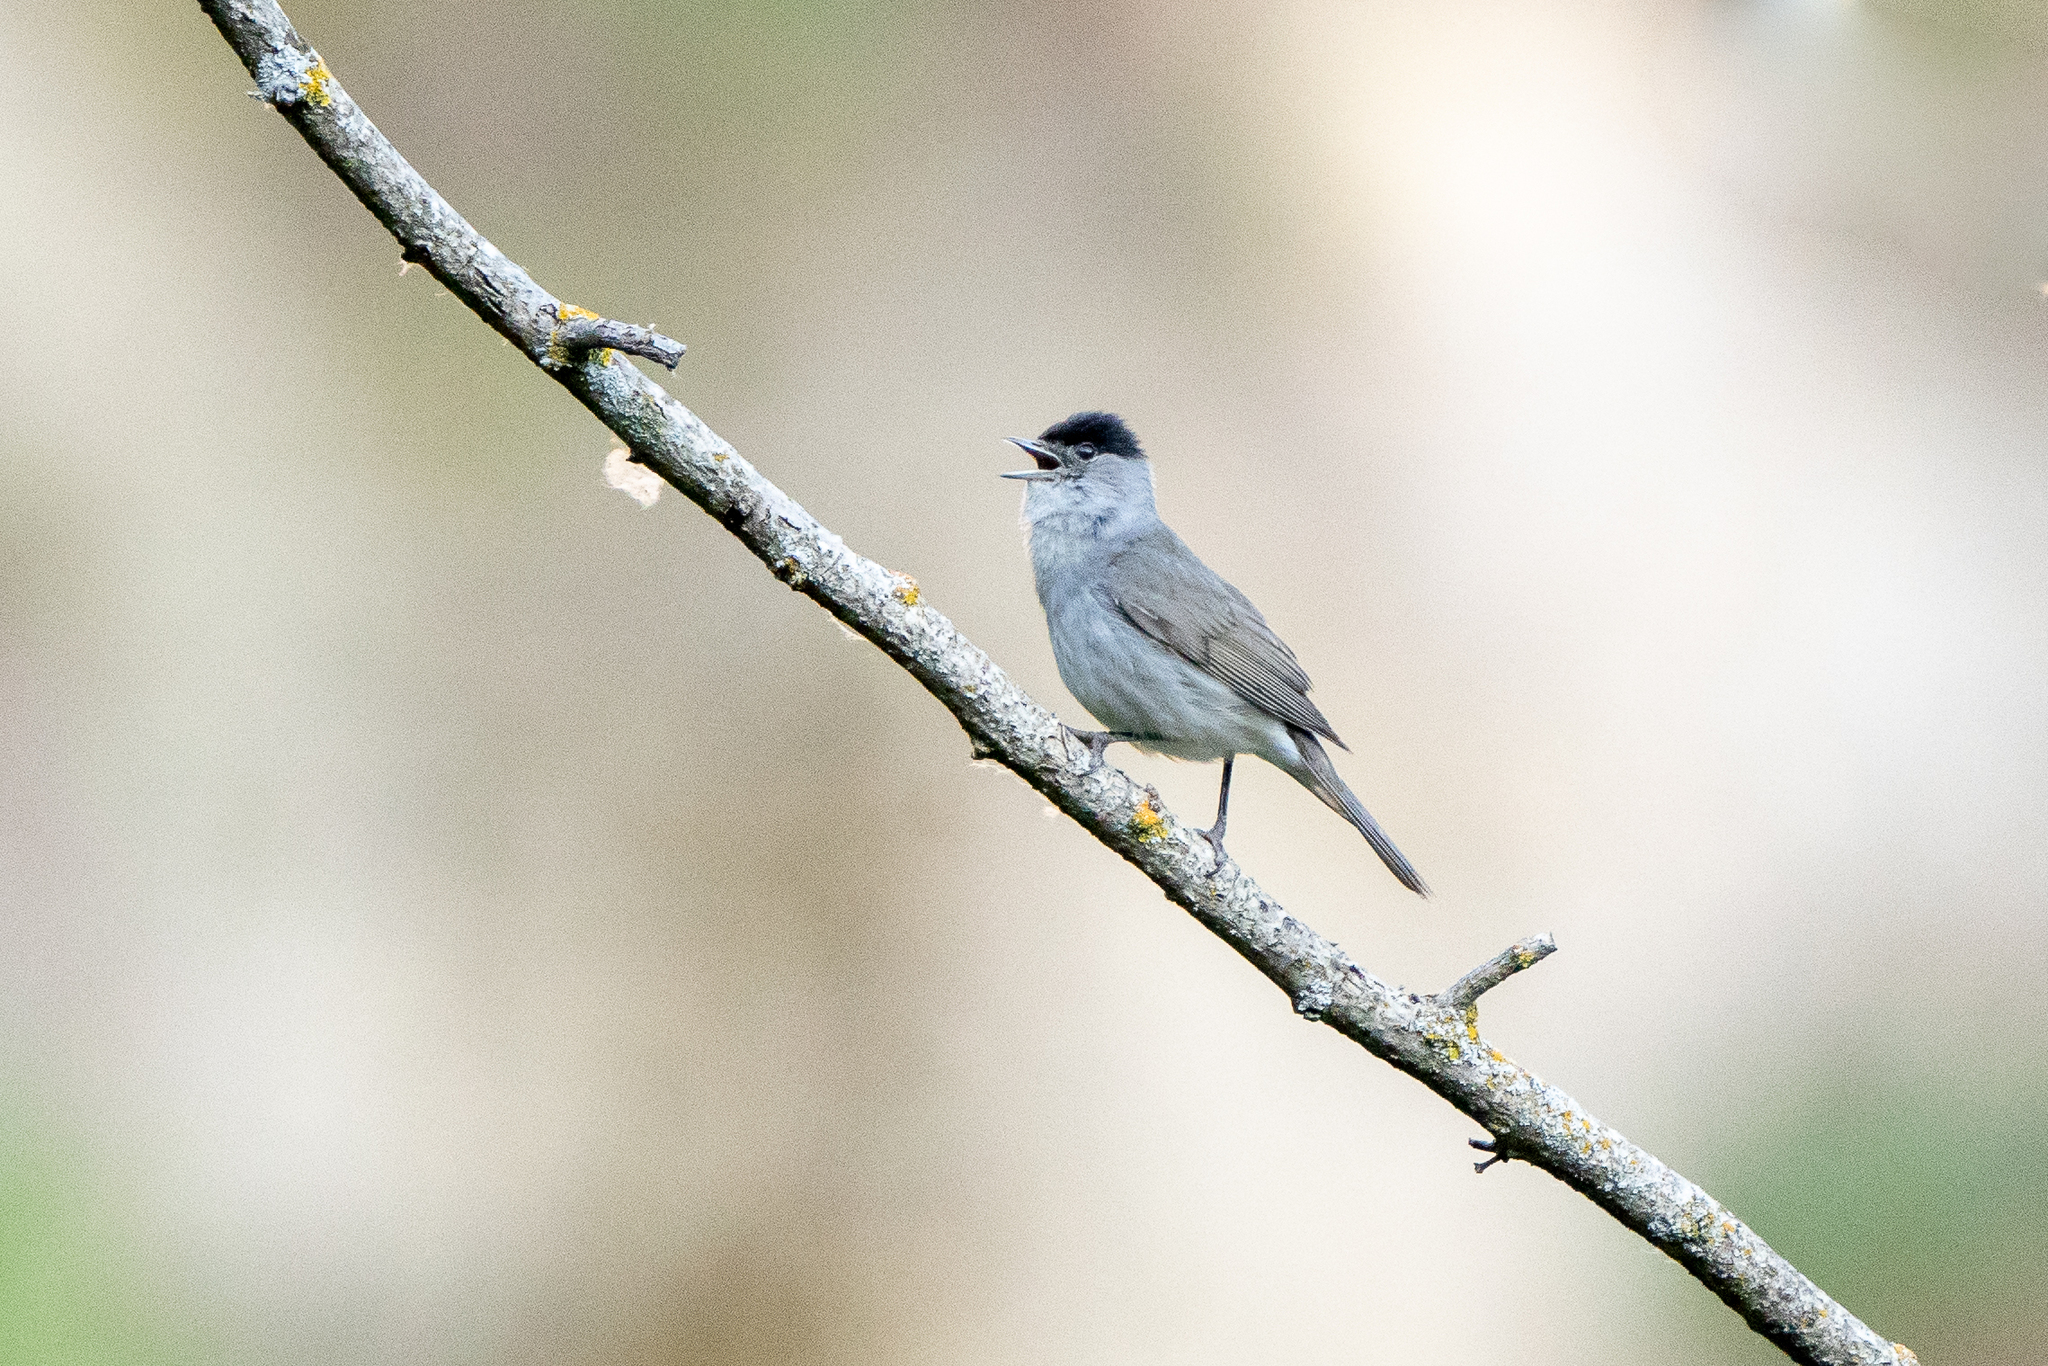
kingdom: Animalia
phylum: Chordata
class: Aves
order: Passeriformes
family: Sylviidae
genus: Sylvia
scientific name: Sylvia atricapilla
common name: Eurasian blackcap
